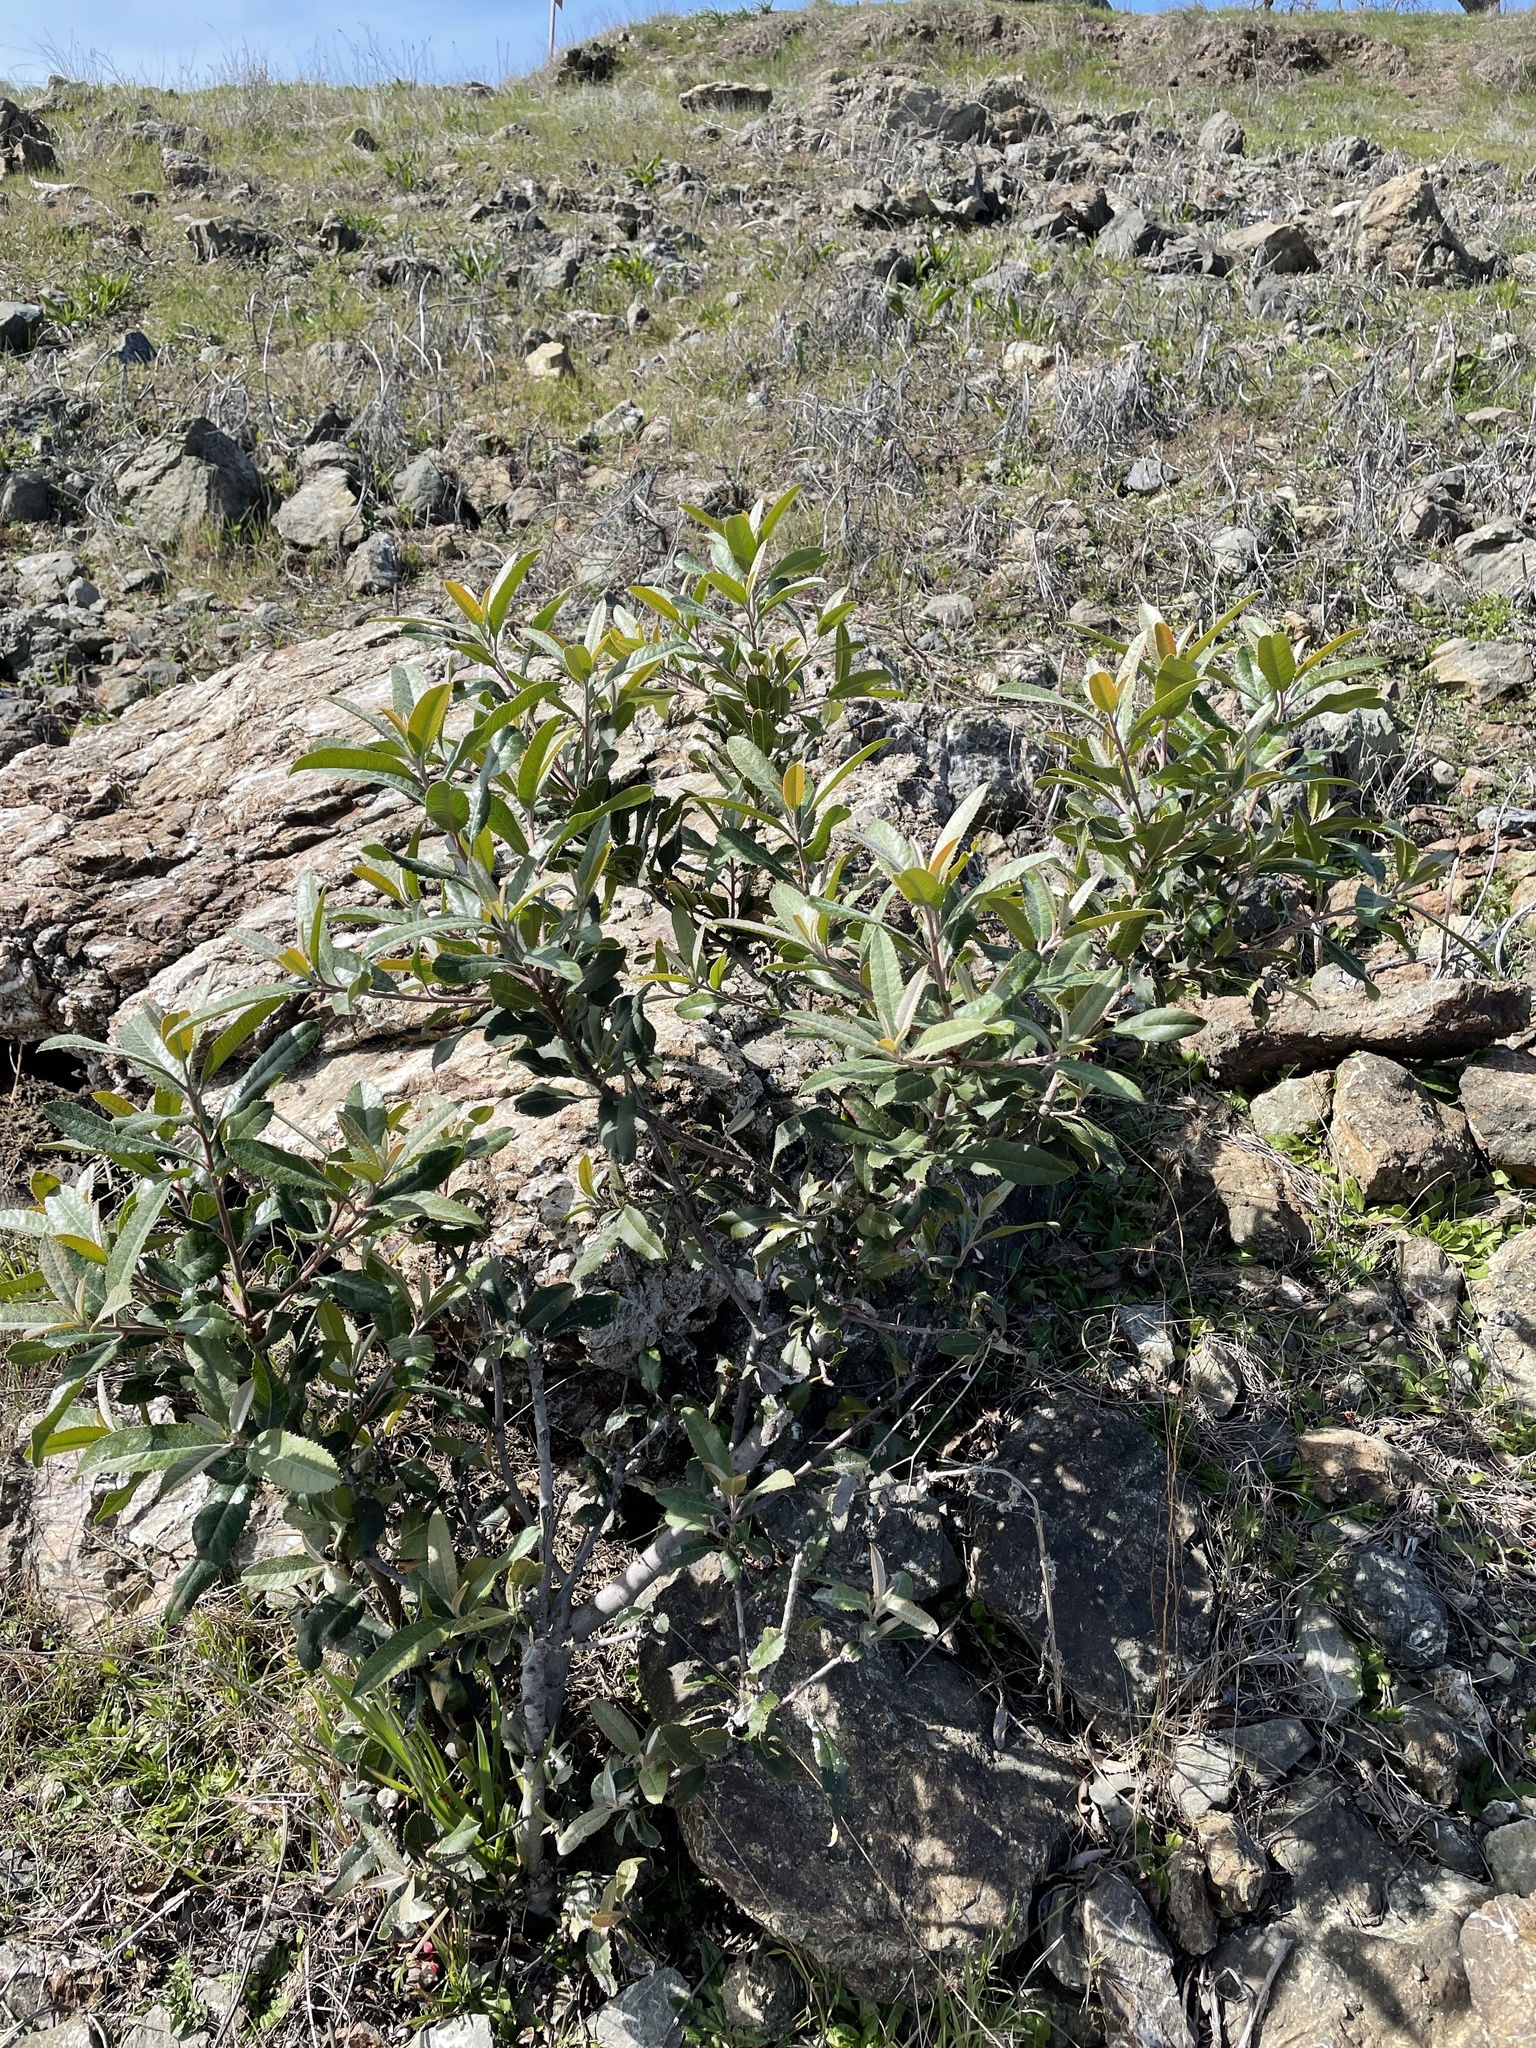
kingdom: Plantae
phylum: Tracheophyta
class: Magnoliopsida
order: Rosales
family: Rosaceae
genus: Heteromeles
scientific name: Heteromeles arbutifolia
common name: California-holly
